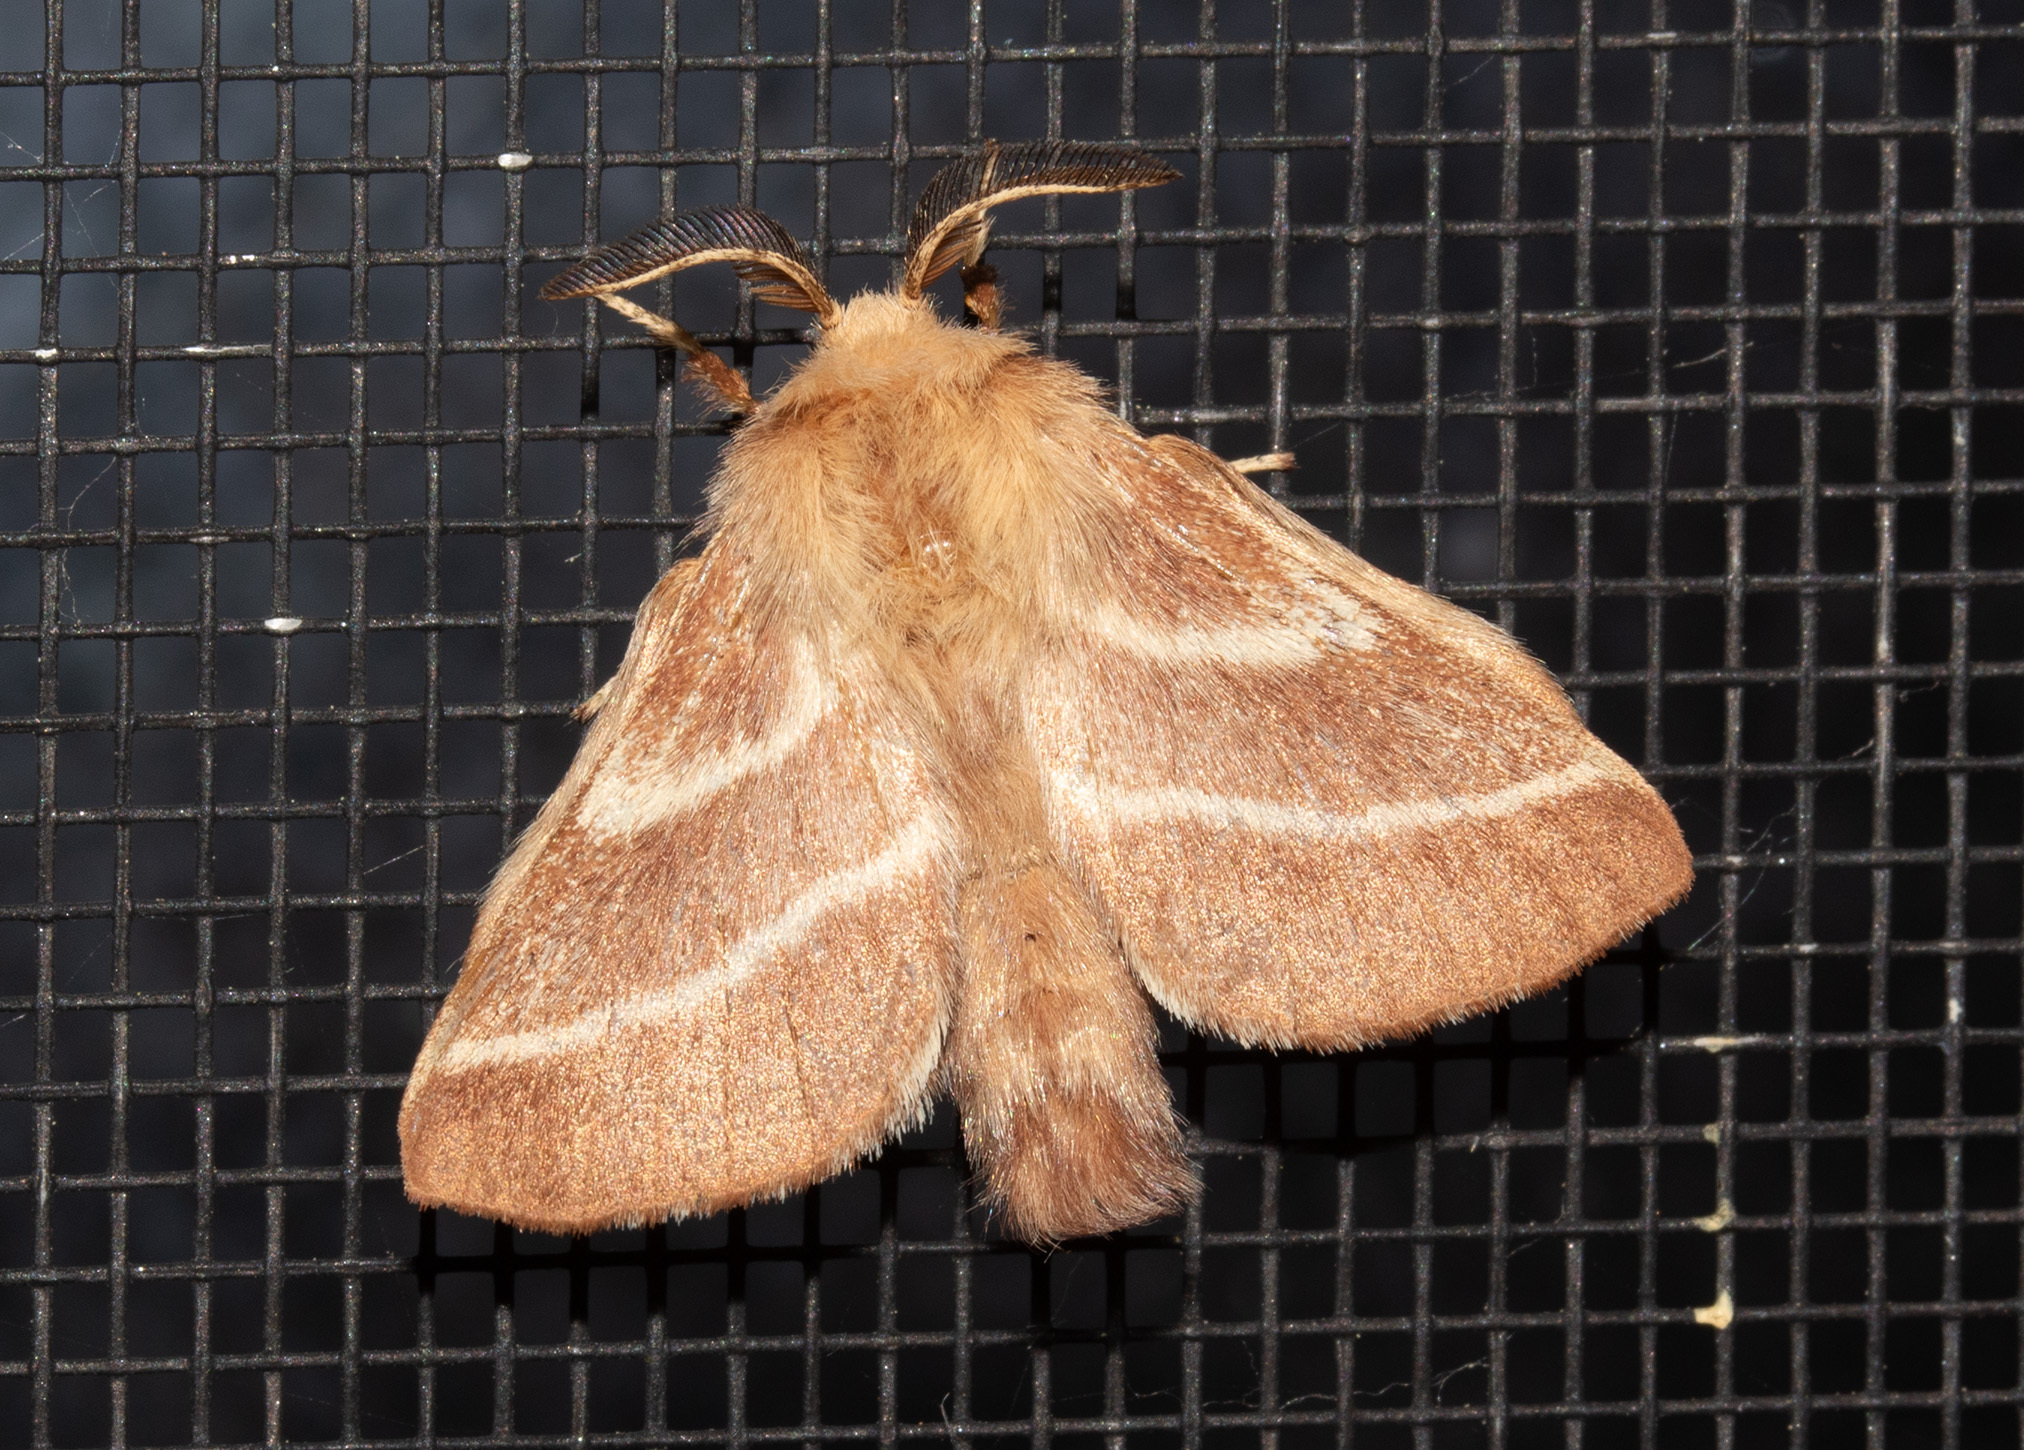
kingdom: Animalia
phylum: Arthropoda
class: Insecta
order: Lepidoptera
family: Lasiocampidae
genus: Malacosoma
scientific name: Malacosoma americana
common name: Eastern tent caterpillar moth
